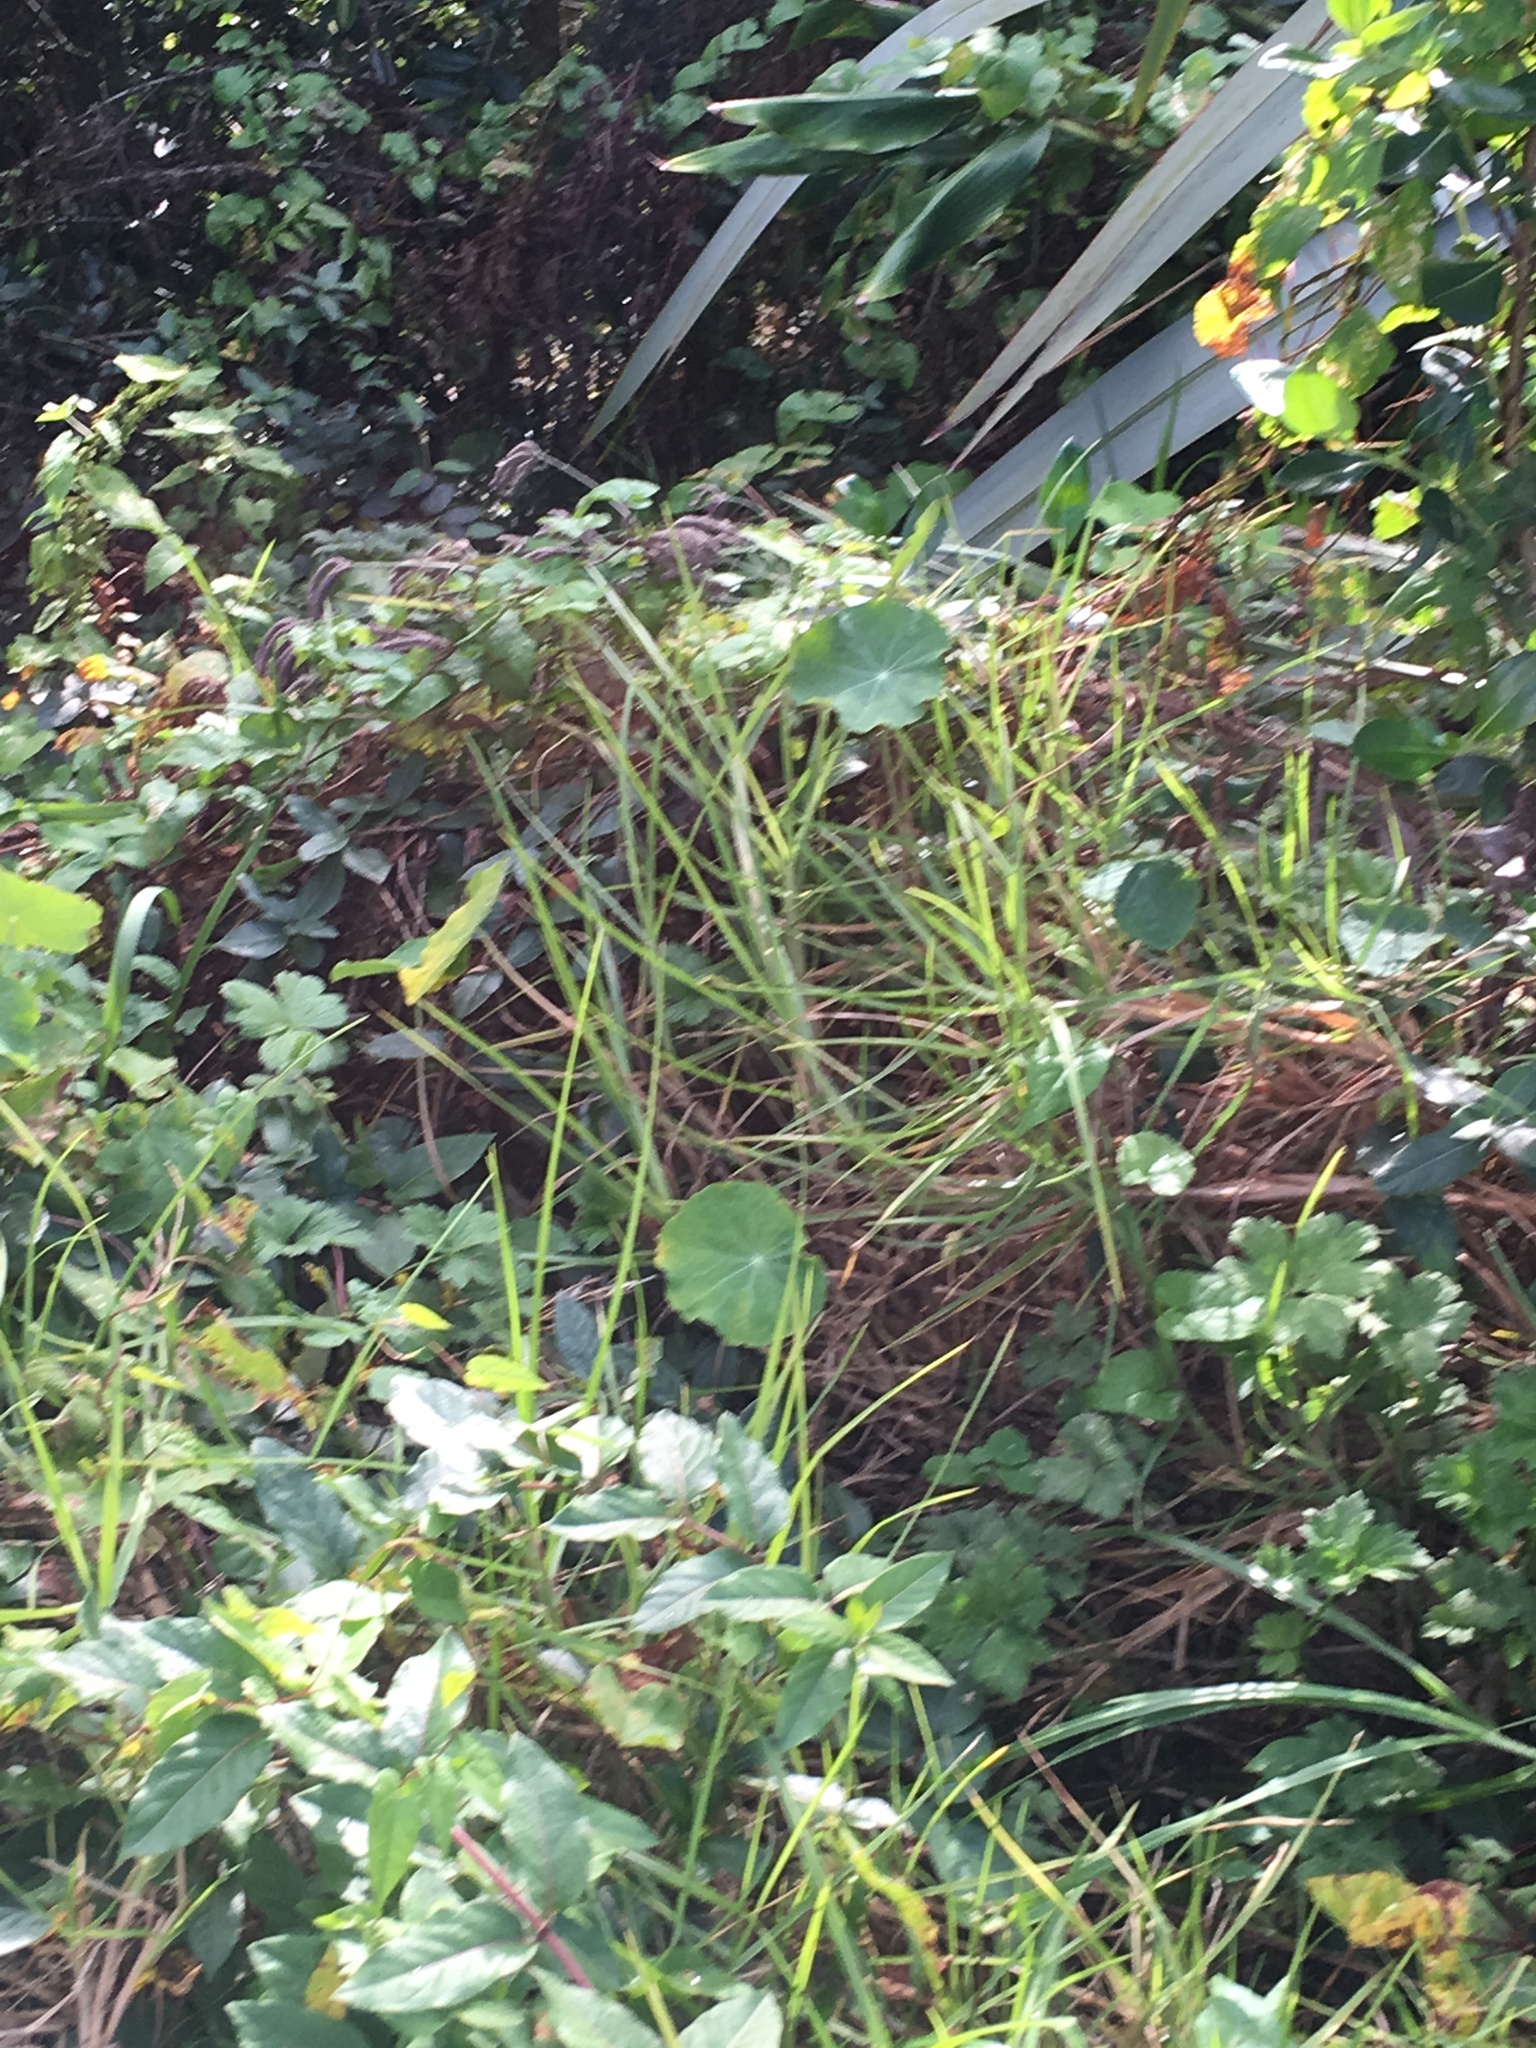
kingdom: Plantae
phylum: Tracheophyta
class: Magnoliopsida
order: Brassicales
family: Tropaeolaceae
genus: Tropaeolum
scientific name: Tropaeolum majus
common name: Nasturtium
